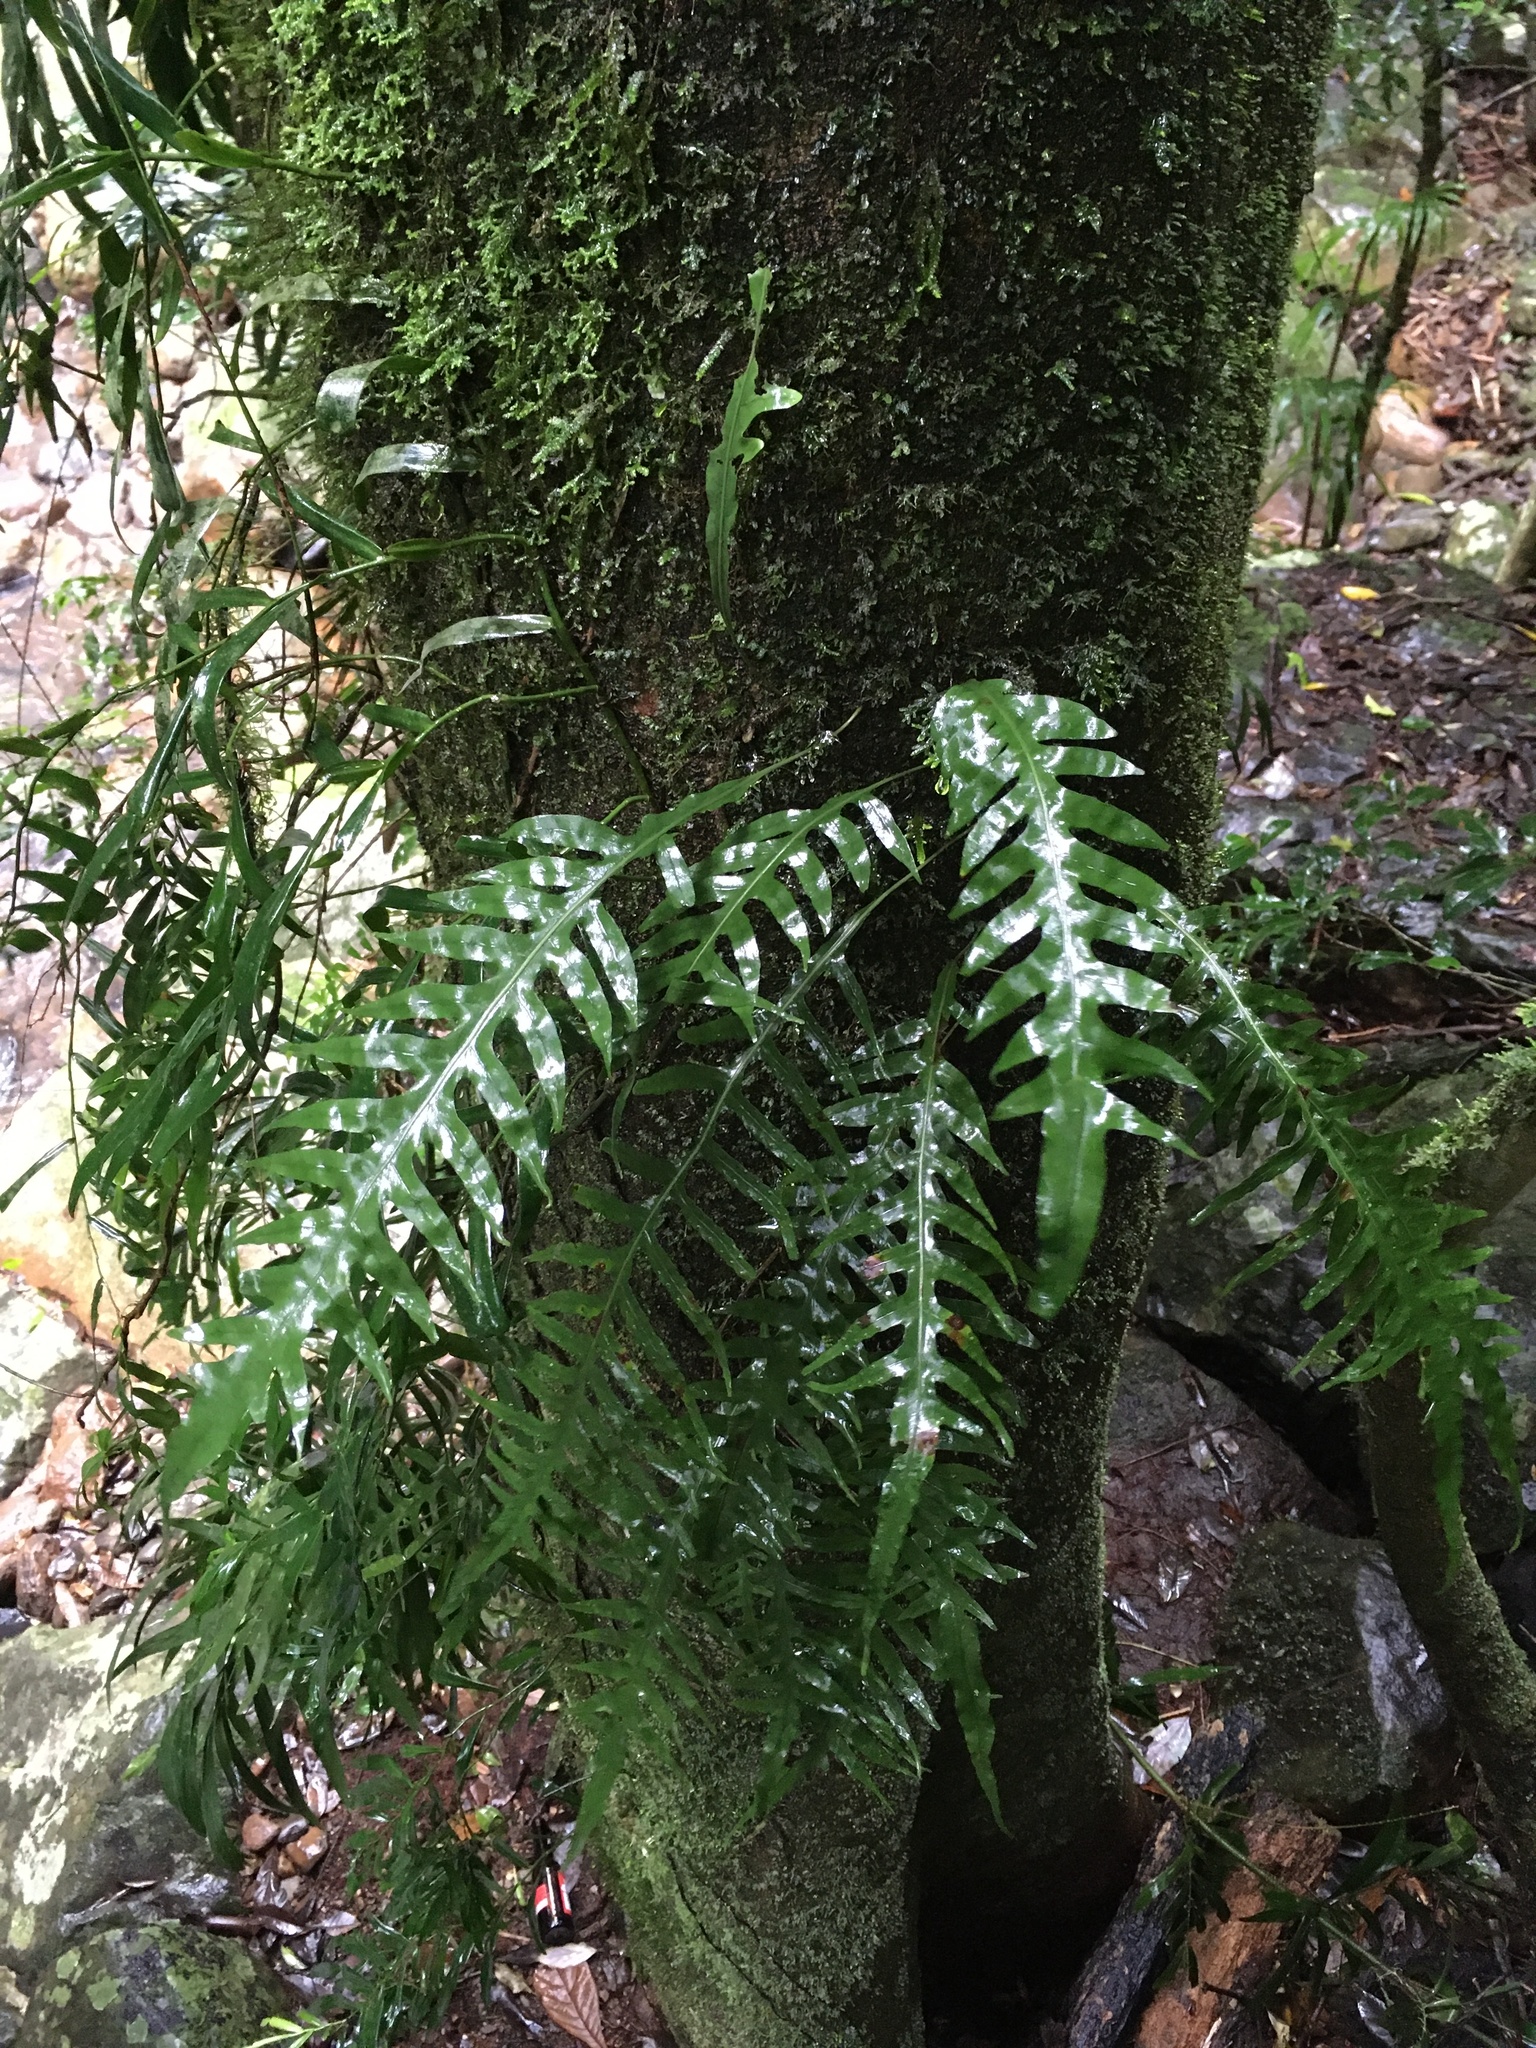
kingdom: Plantae
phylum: Tracheophyta
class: Polypodiopsida
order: Polypodiales
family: Polypodiaceae
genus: Lecanopteris
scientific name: Lecanopteris scandens
